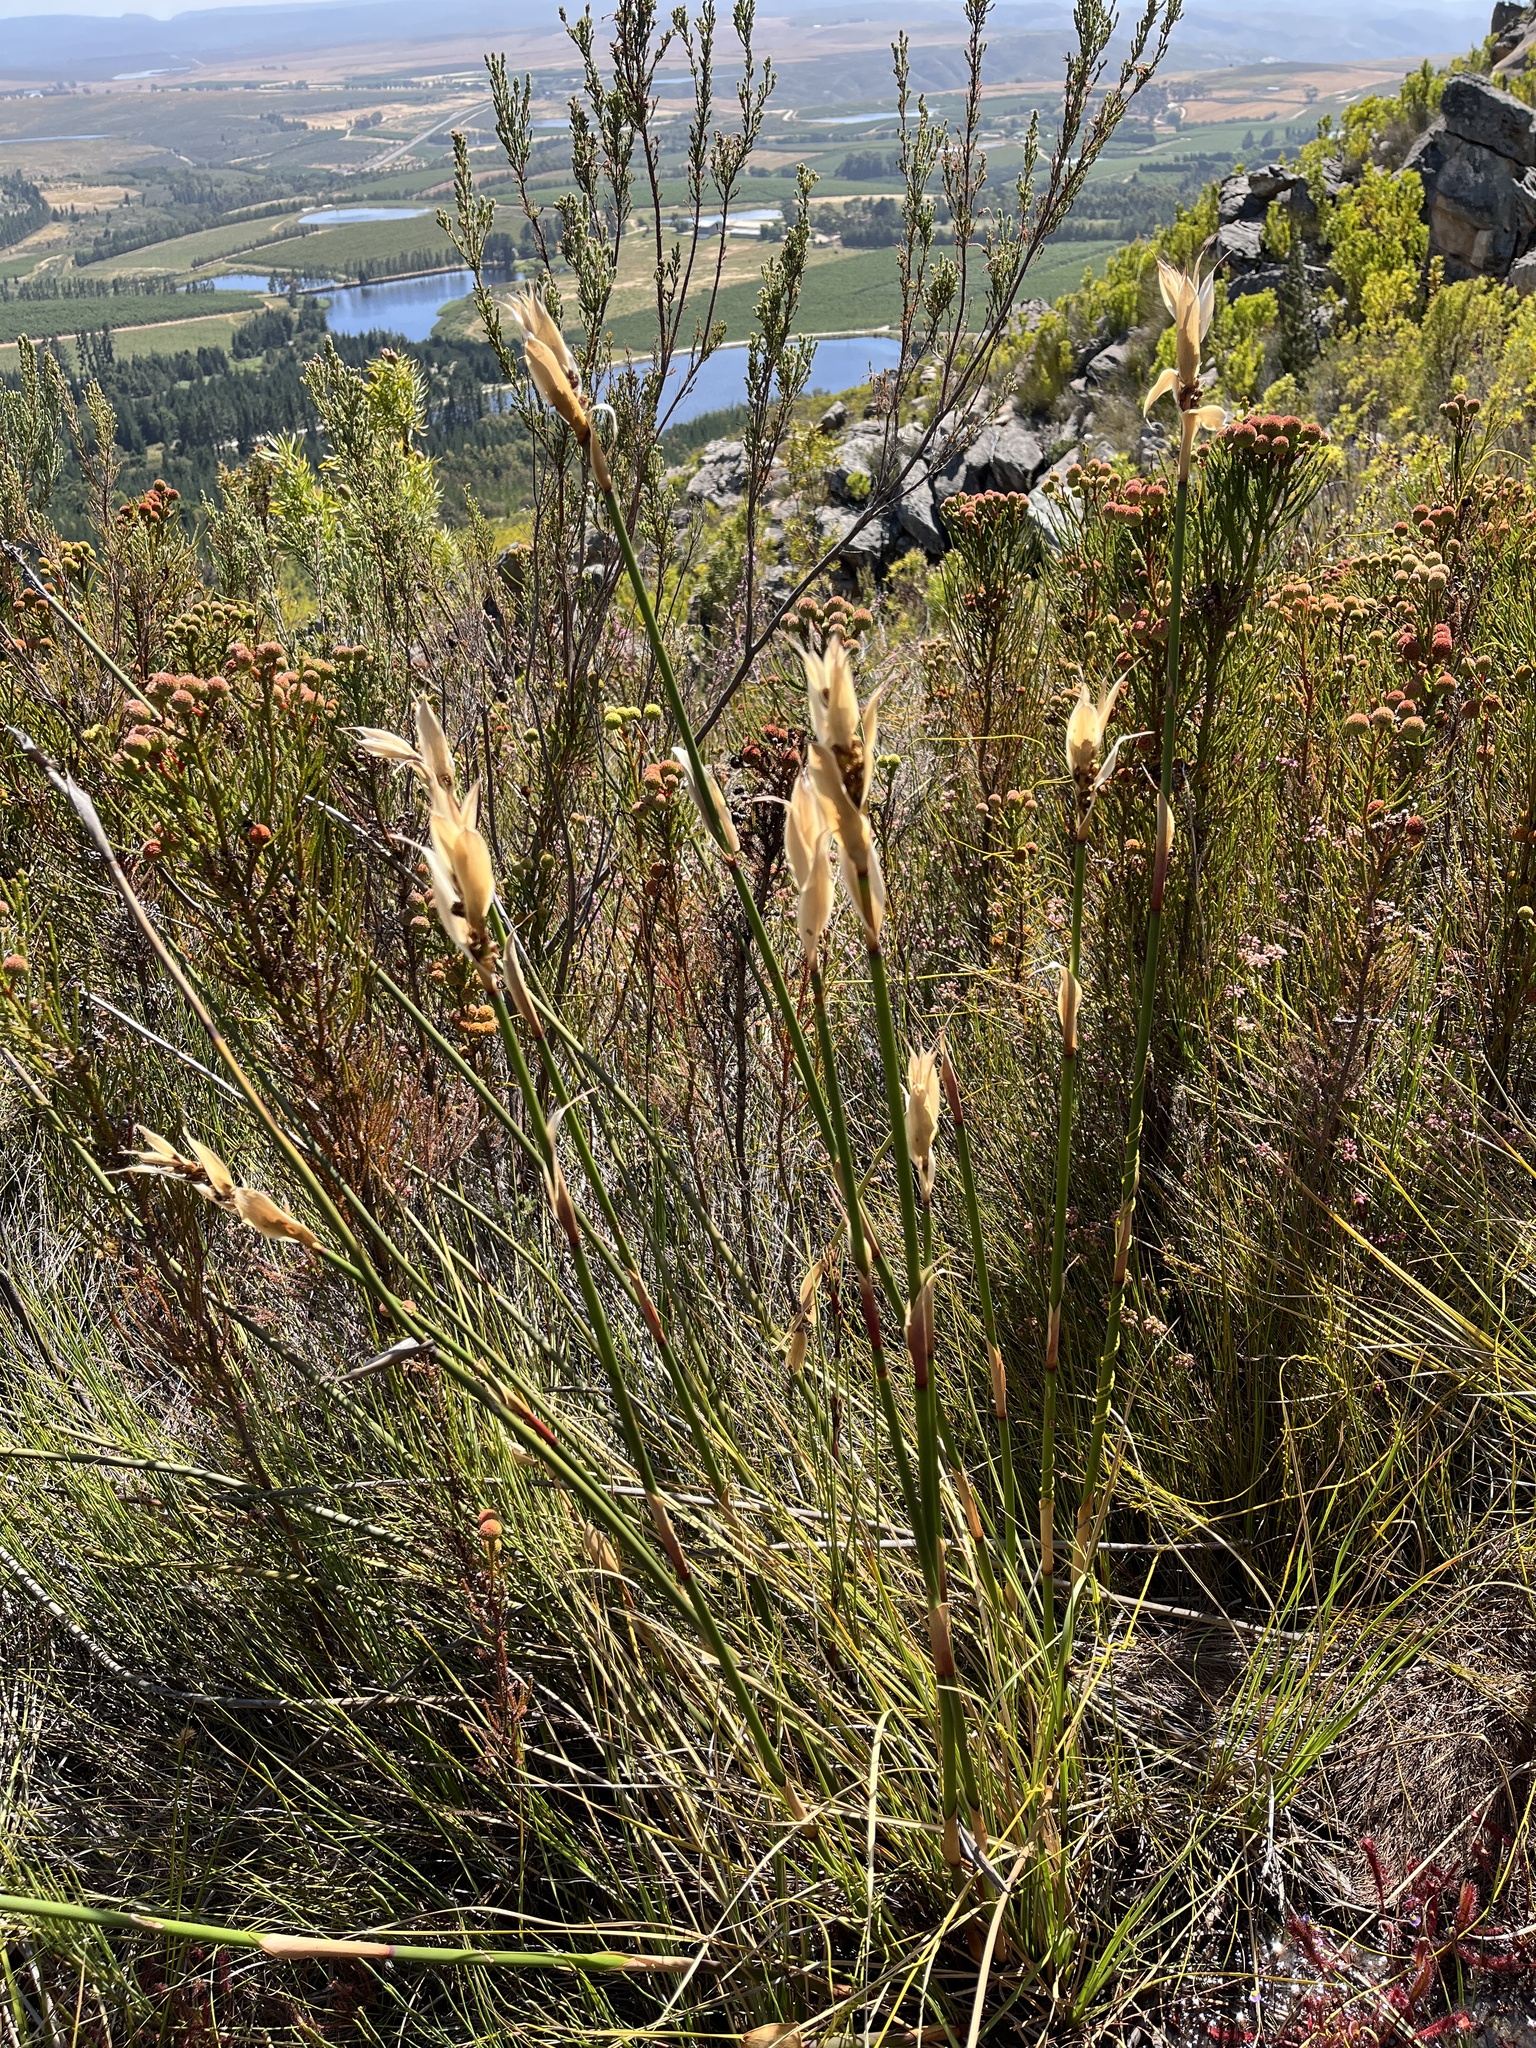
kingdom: Plantae
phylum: Tracheophyta
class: Liliopsida
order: Poales
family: Restionaceae
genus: Elegia
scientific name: Elegia filacea
